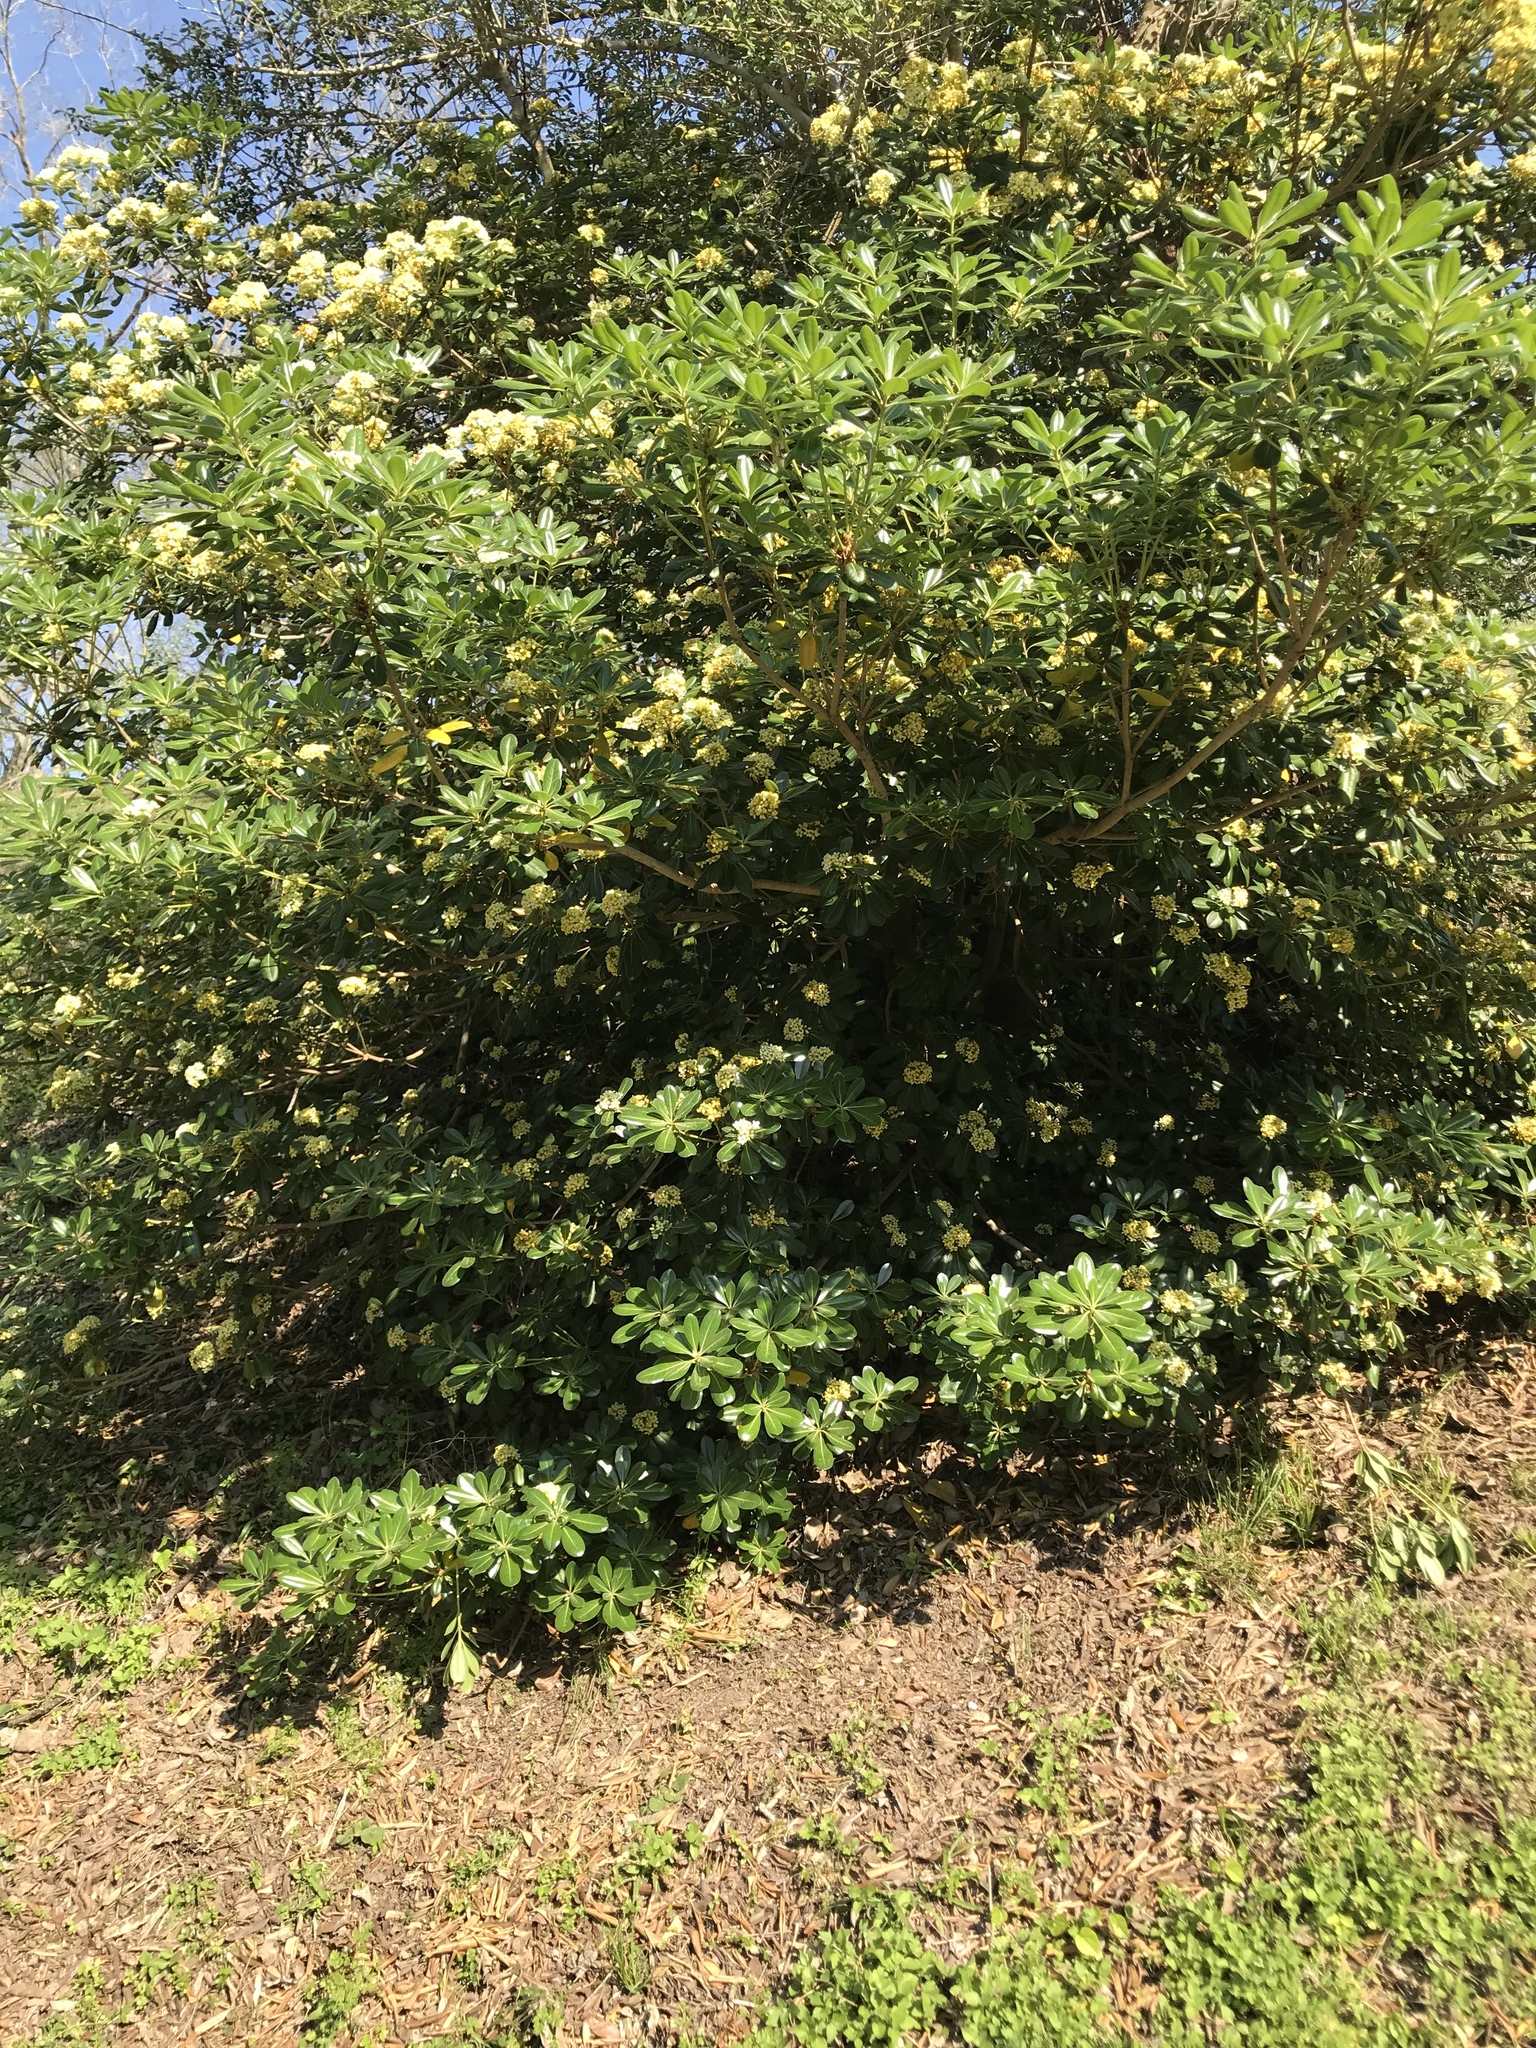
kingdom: Plantae
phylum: Tracheophyta
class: Magnoliopsida
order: Apiales
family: Pittosporaceae
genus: Pittosporum
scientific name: Pittosporum tobira
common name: Japanese cheesewood
